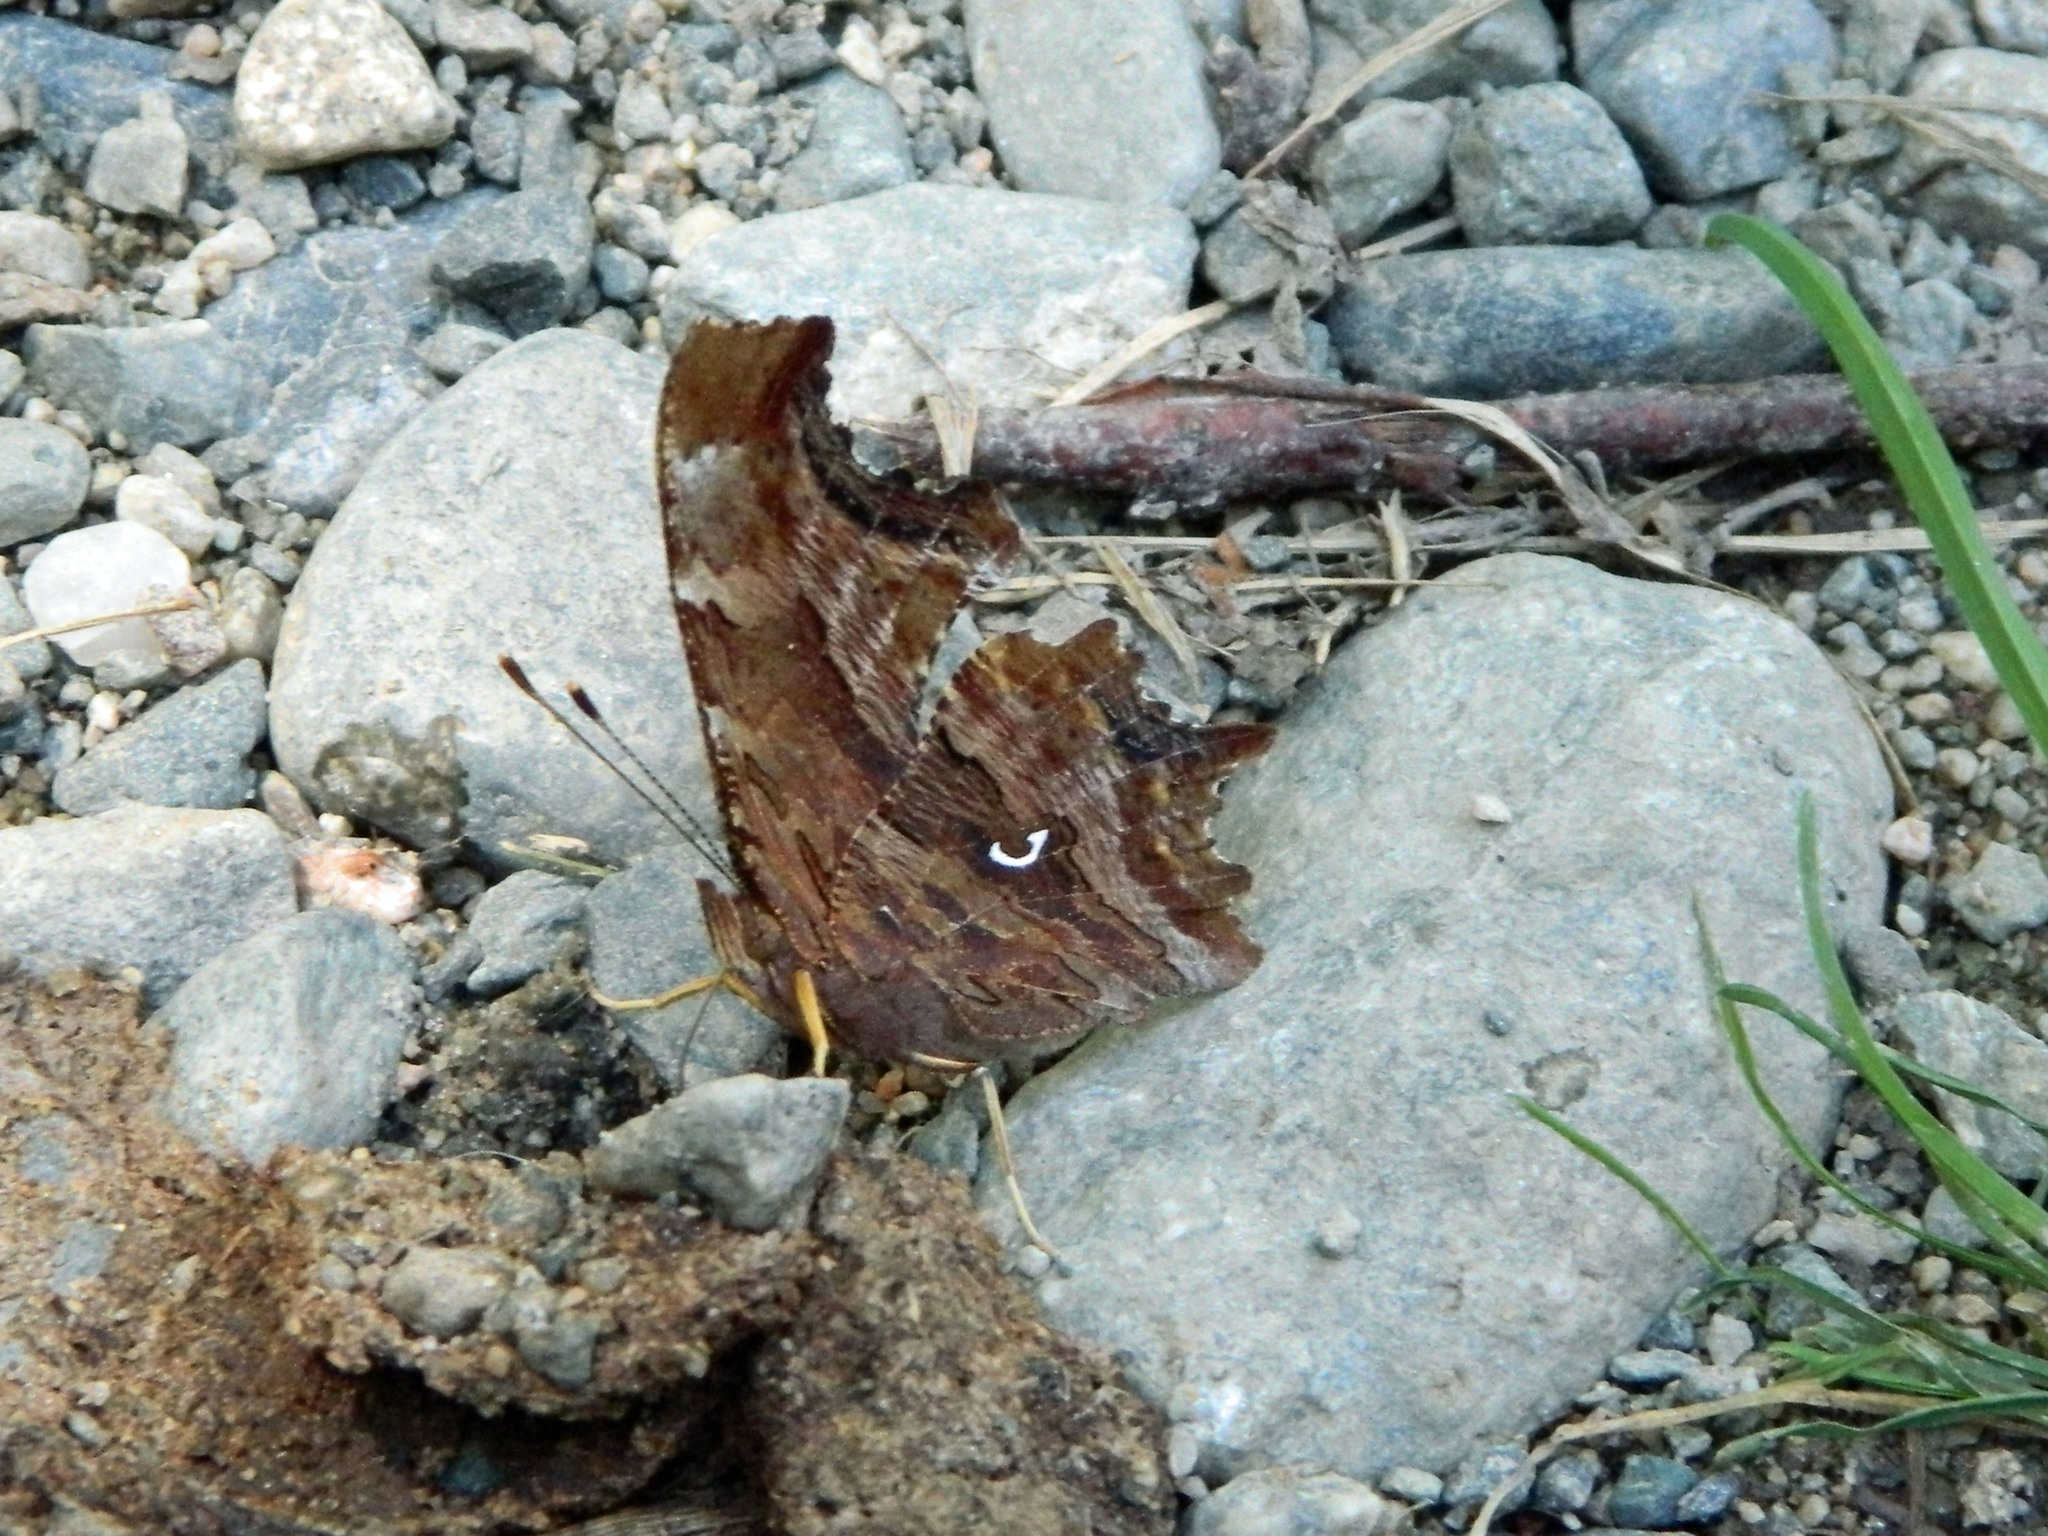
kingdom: Animalia
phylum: Arthropoda
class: Insecta
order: Lepidoptera
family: Nymphalidae
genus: Polygonia
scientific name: Polygonia comma
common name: Eastern comma
